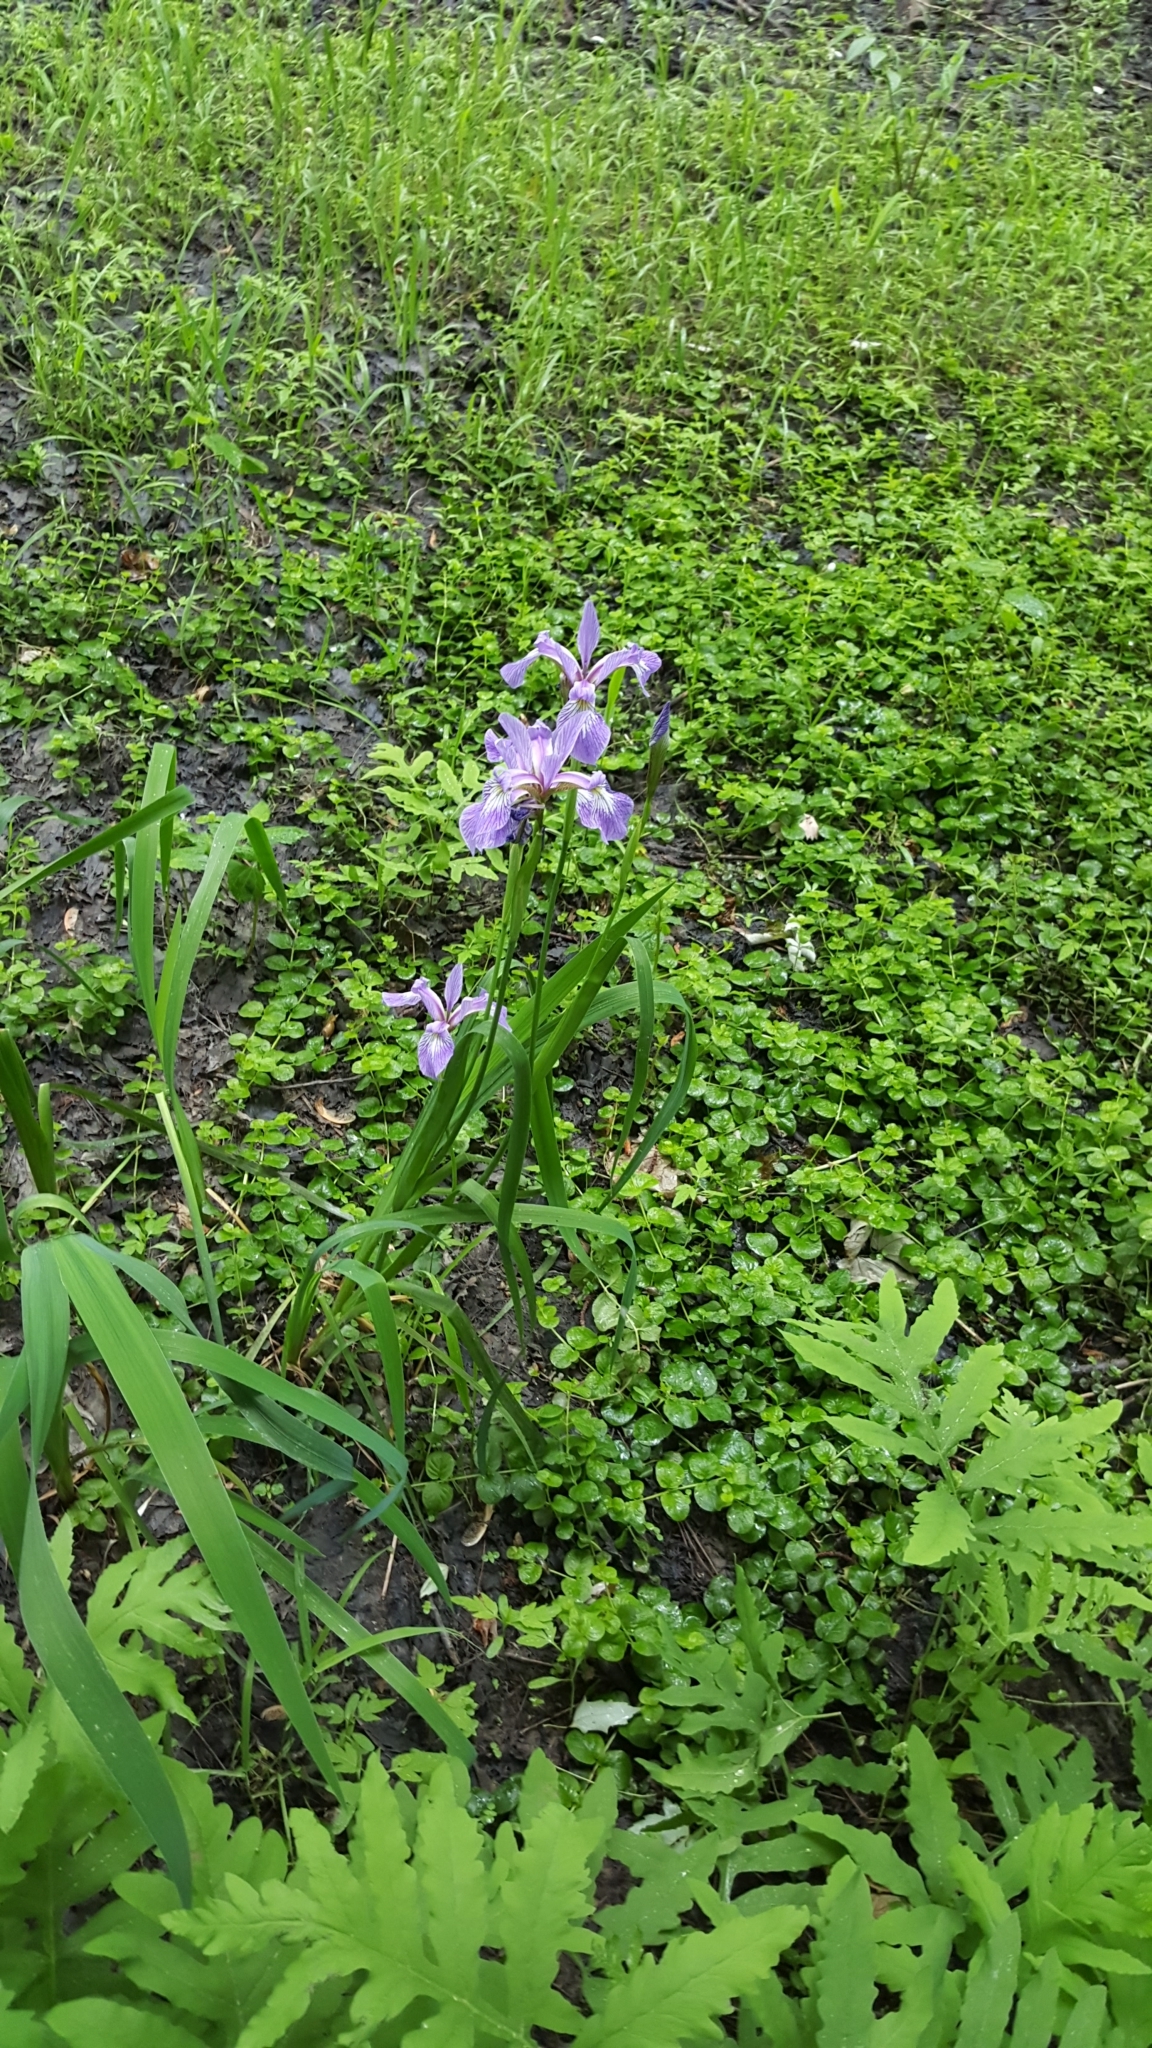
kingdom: Plantae
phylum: Tracheophyta
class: Liliopsida
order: Asparagales
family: Iridaceae
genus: Iris
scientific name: Iris versicolor
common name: Purple iris
